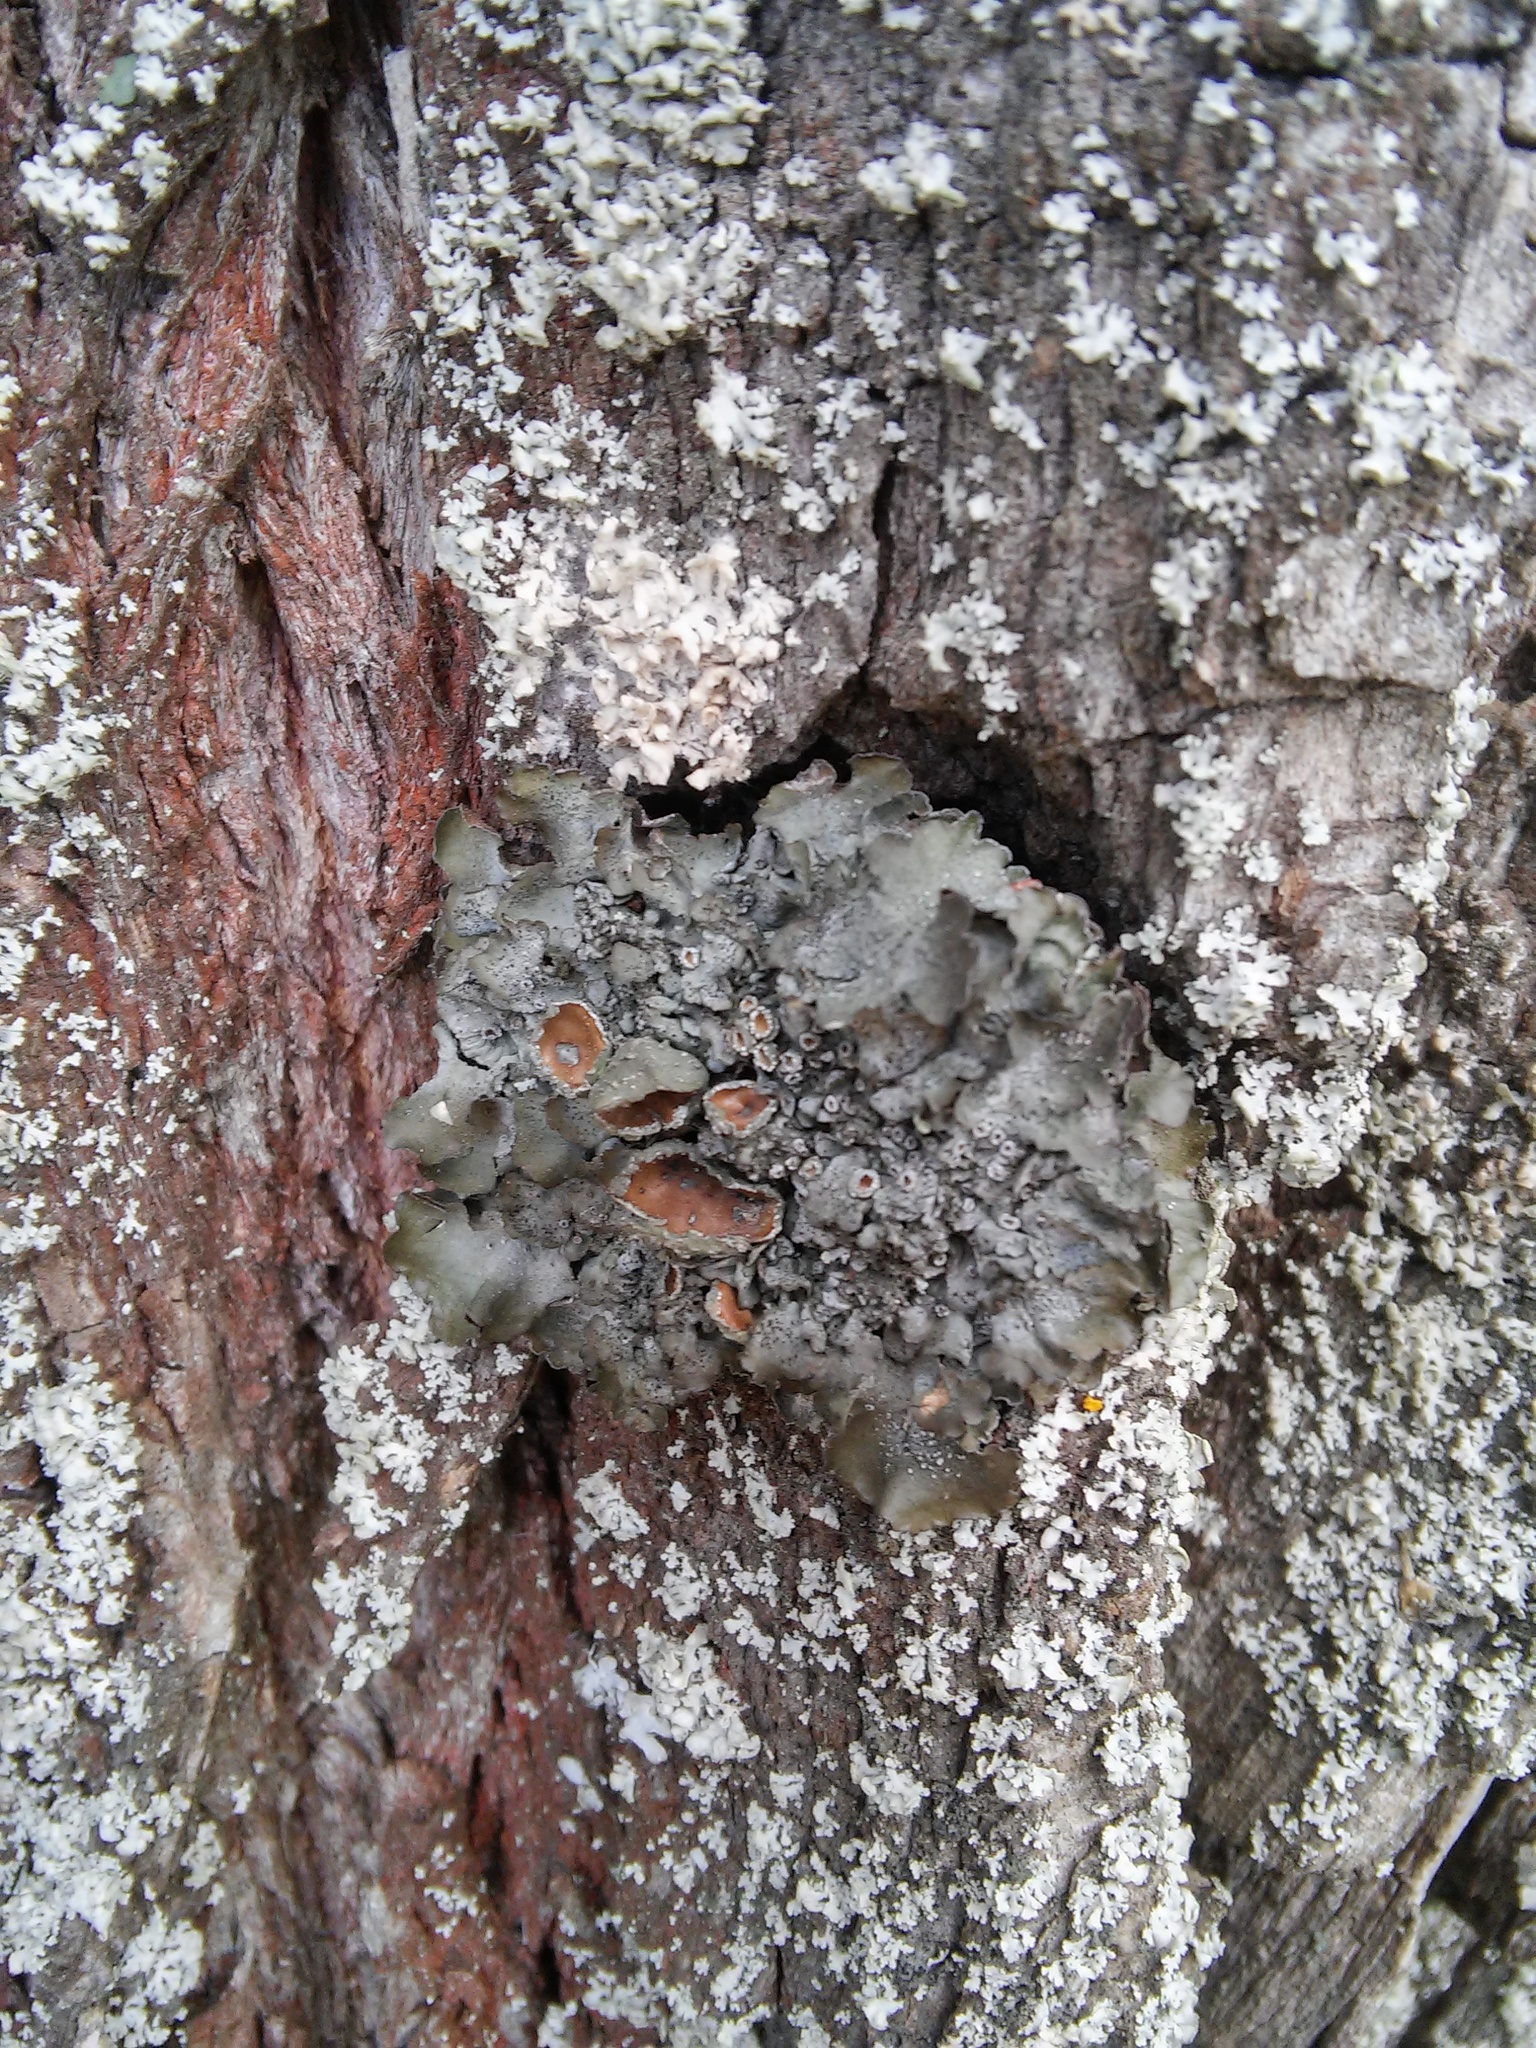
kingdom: Fungi
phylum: Ascomycota
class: Lecanoromycetes
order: Lecanorales
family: Parmeliaceae
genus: Pleurosticta
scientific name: Pleurosticta acetabulum
